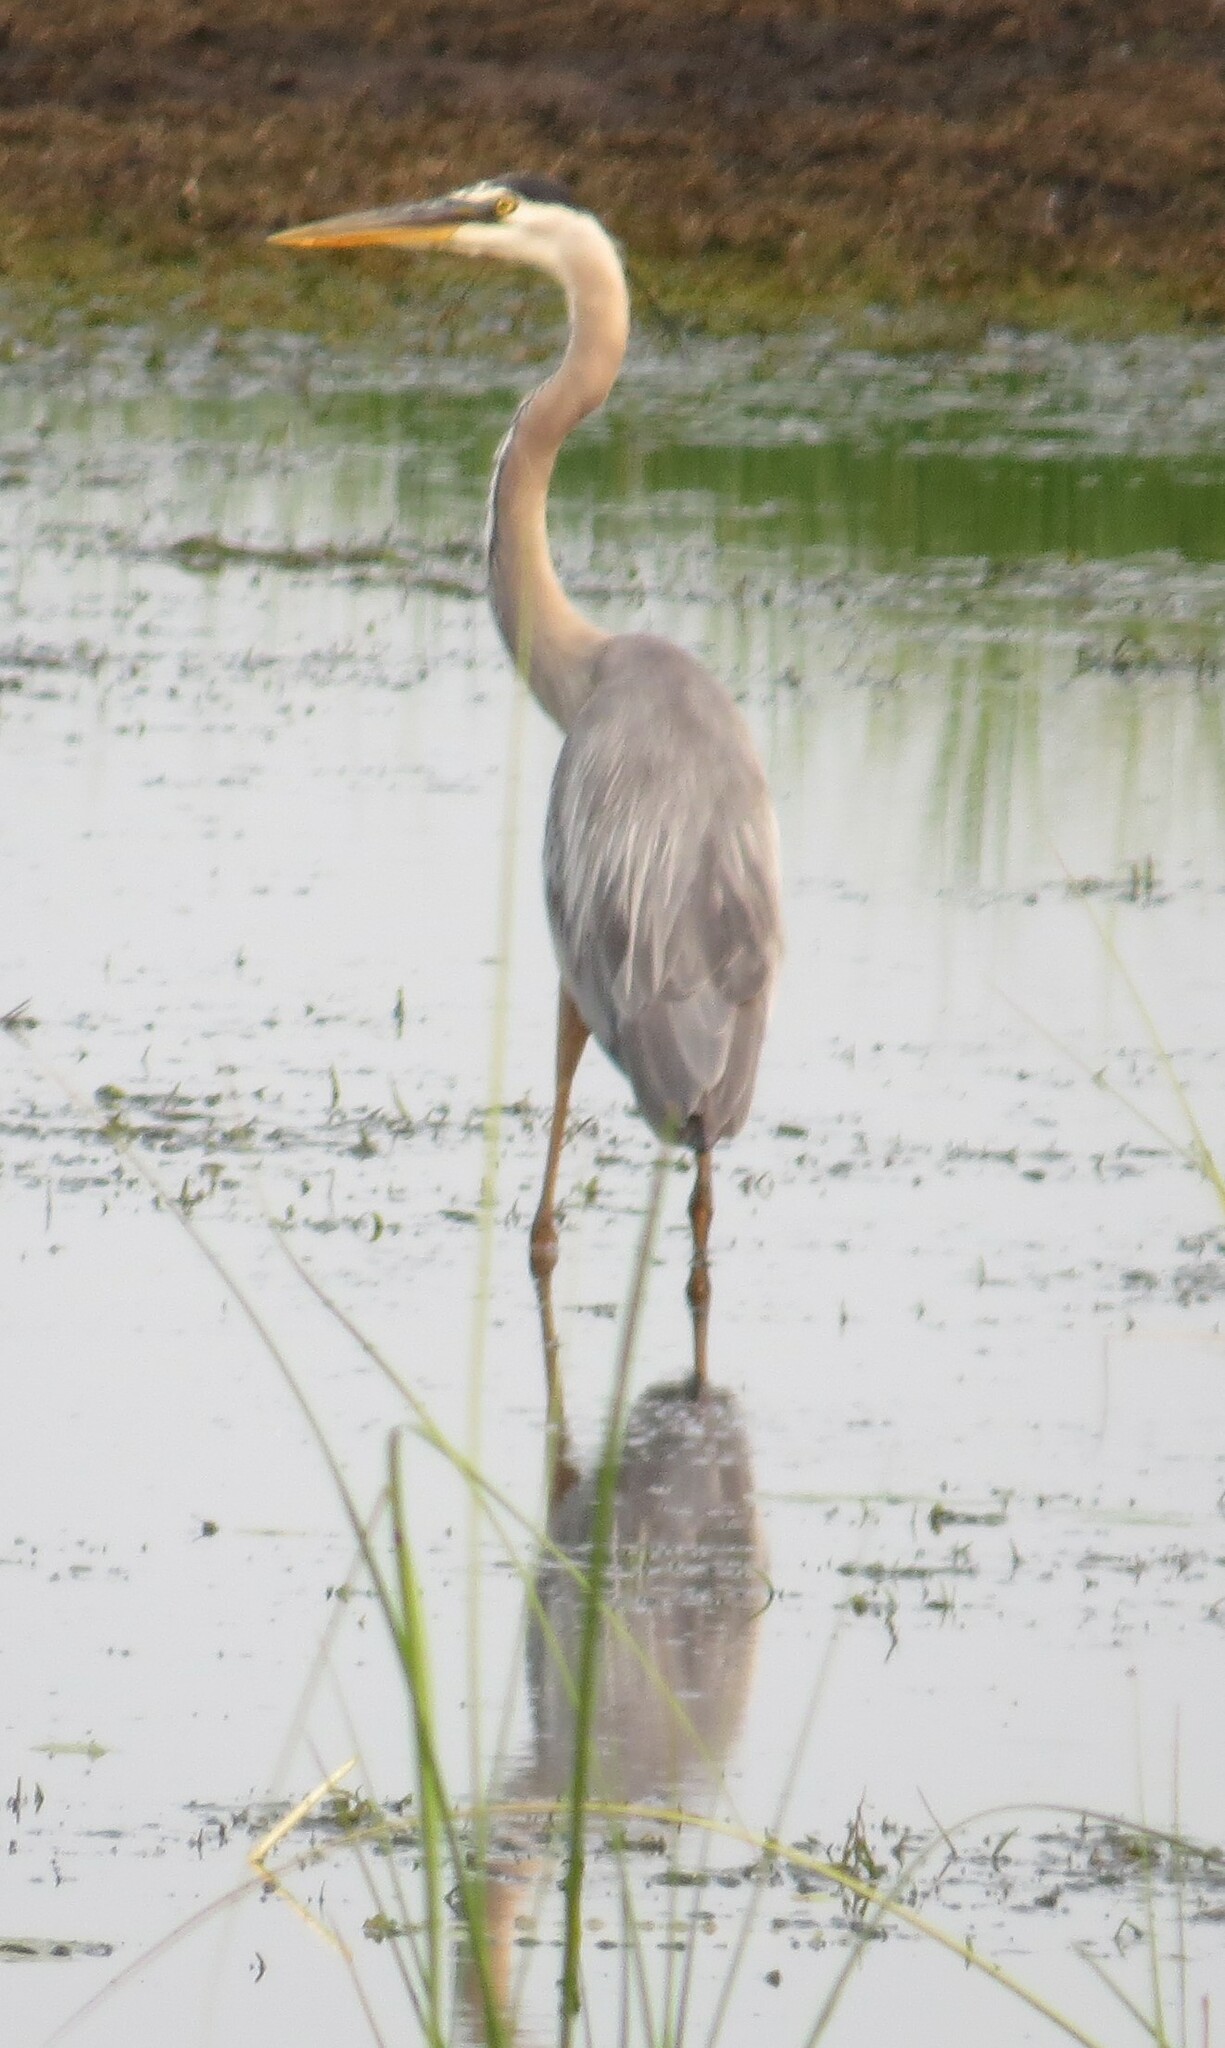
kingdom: Animalia
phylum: Chordata
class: Aves
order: Pelecaniformes
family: Ardeidae
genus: Ardea
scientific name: Ardea herodias
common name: Great blue heron
